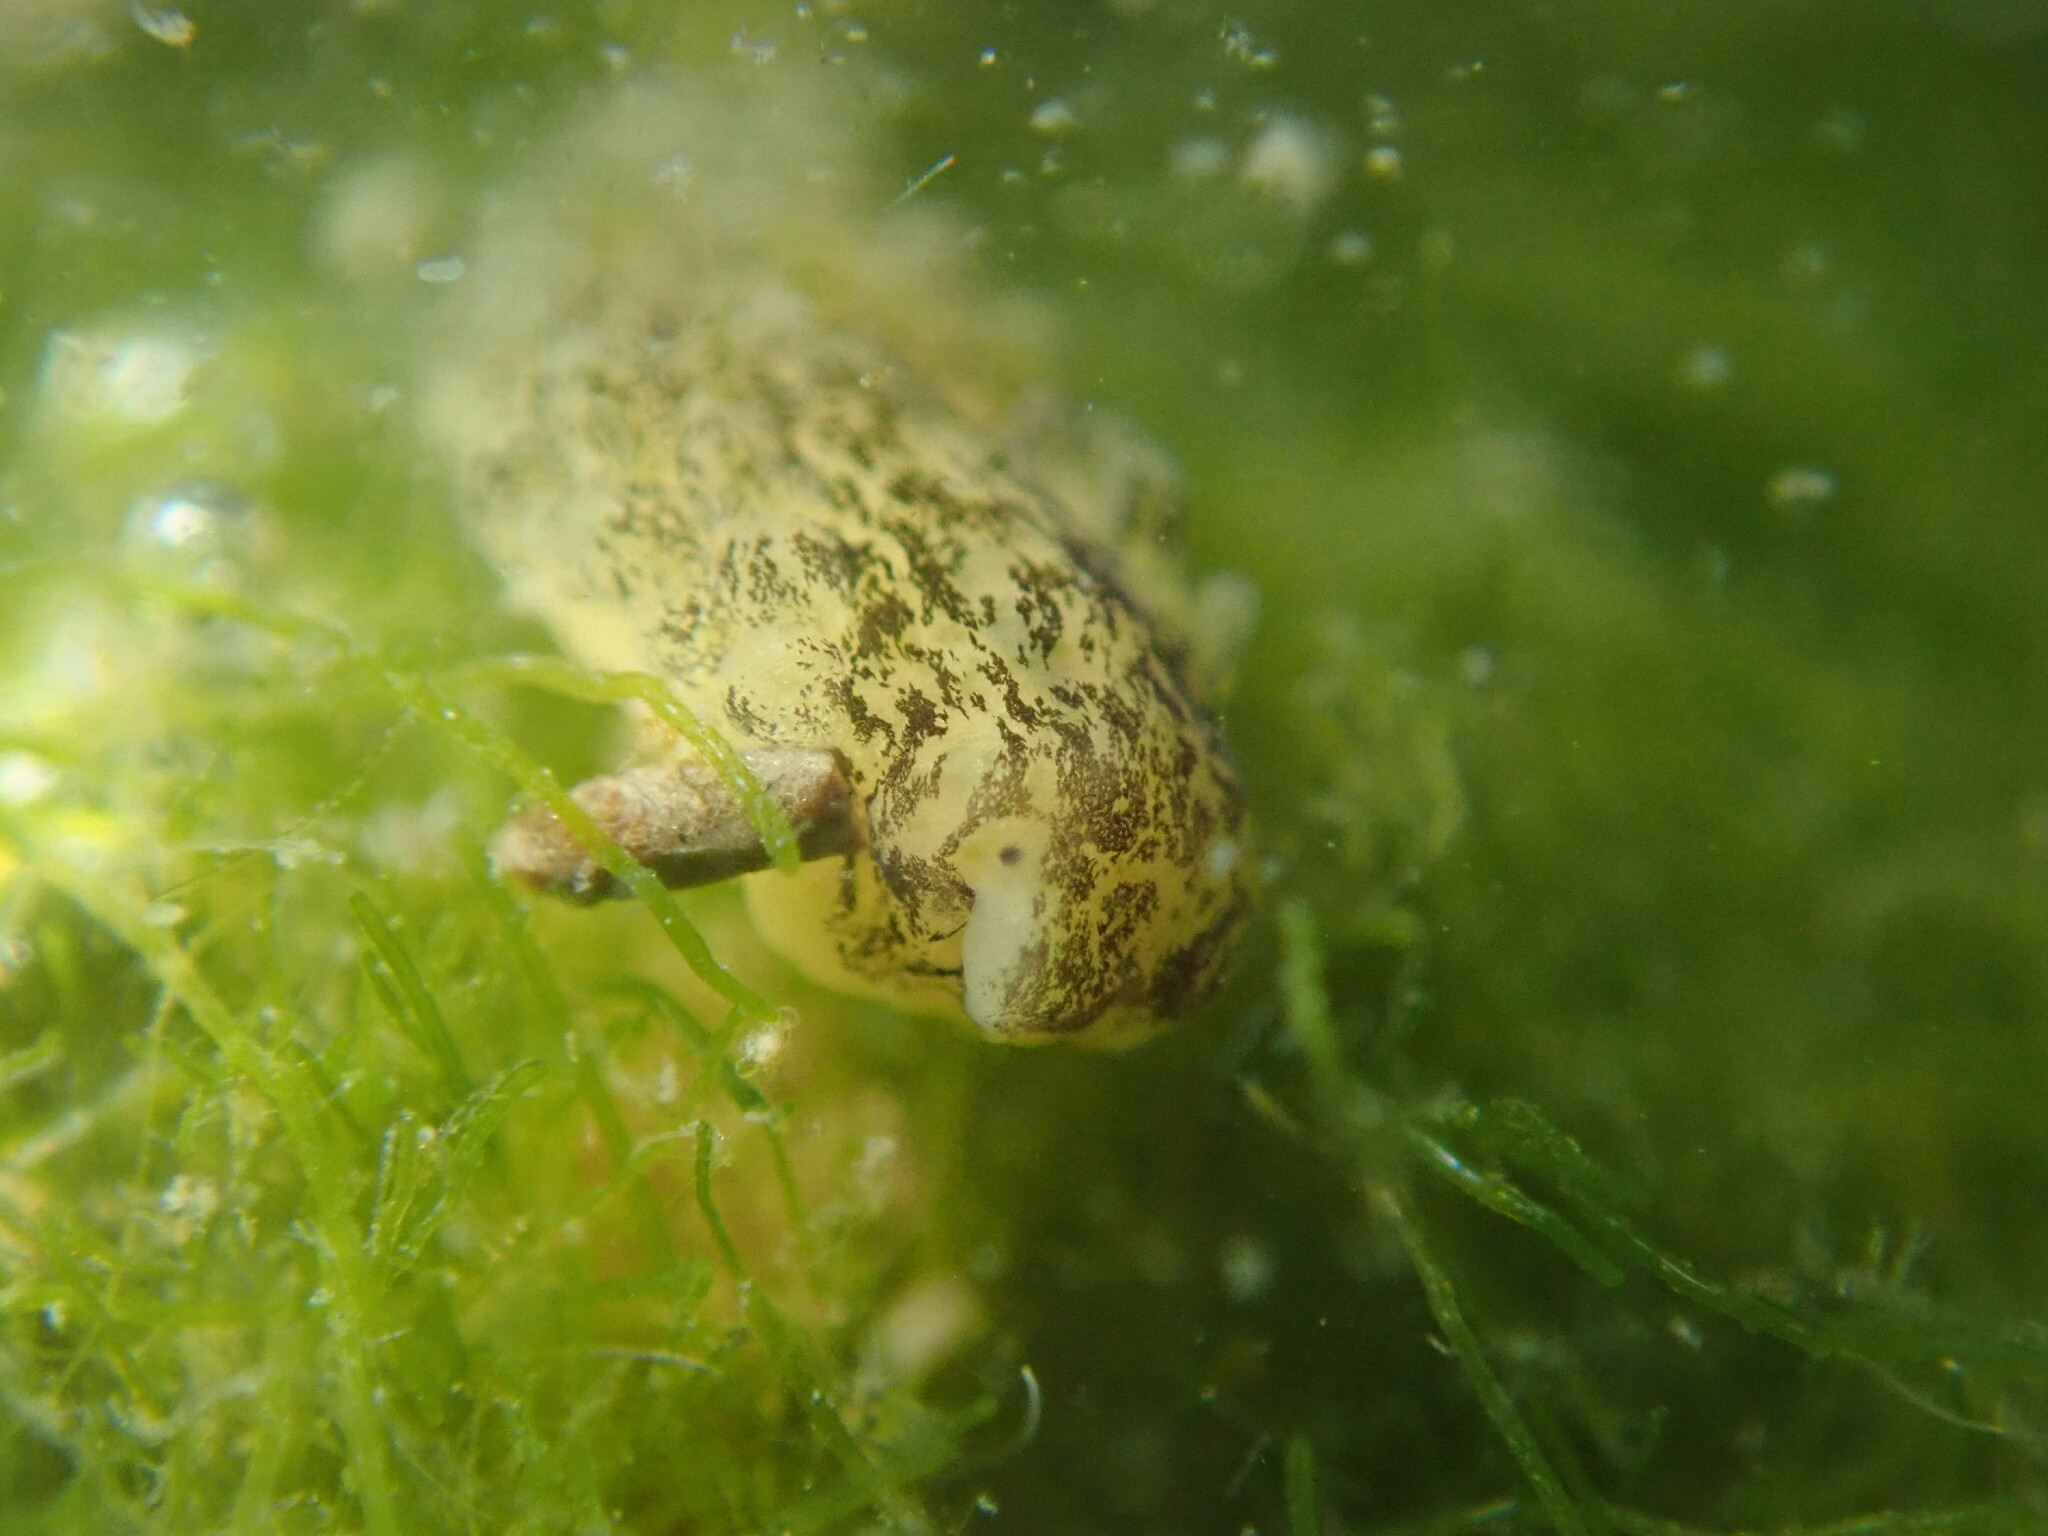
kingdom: Animalia
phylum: Mollusca
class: Gastropoda
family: Limapontiidae
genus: Alderia
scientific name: Alderia modesta
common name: Modest alderia
